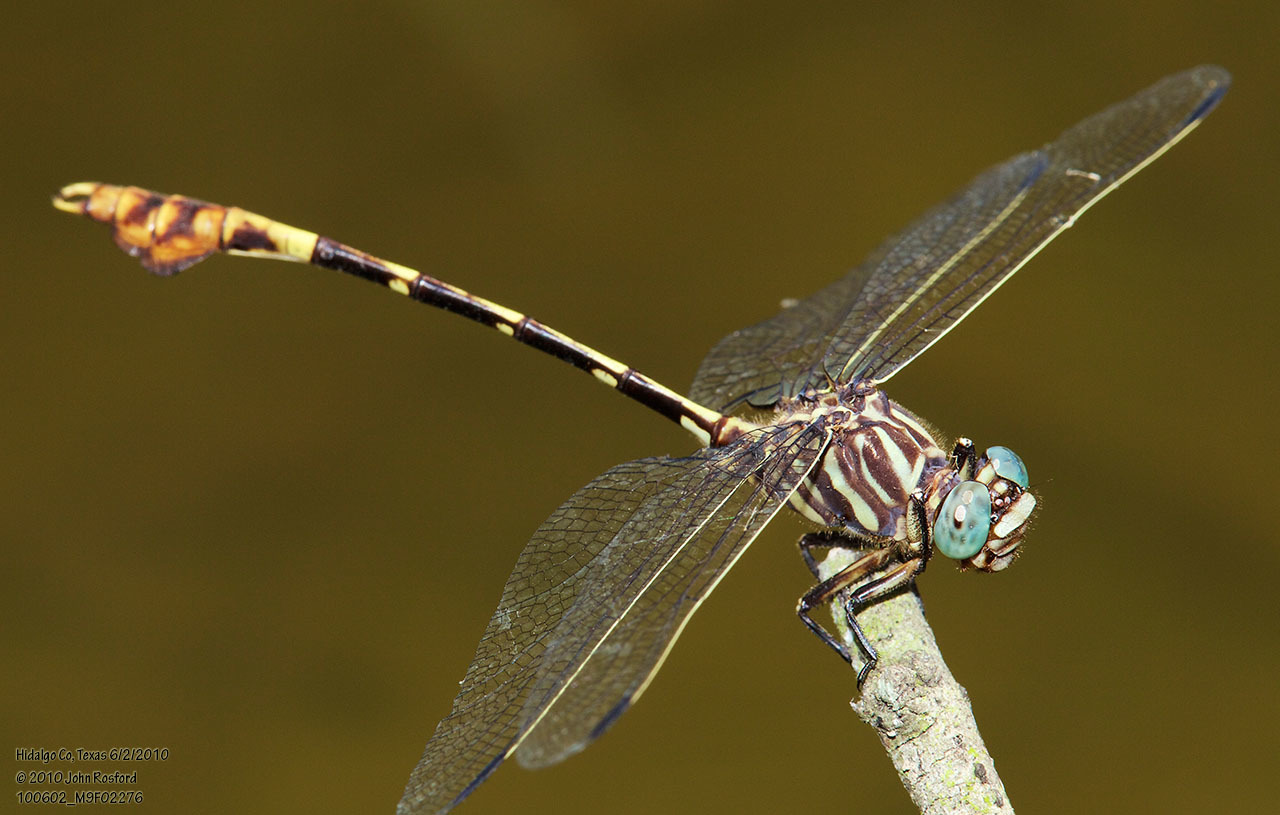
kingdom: Animalia
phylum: Arthropoda
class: Insecta
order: Odonata
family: Gomphidae
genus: Phyllogomphoides
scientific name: Phyllogomphoides albrighti
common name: Five-striped leaftail
